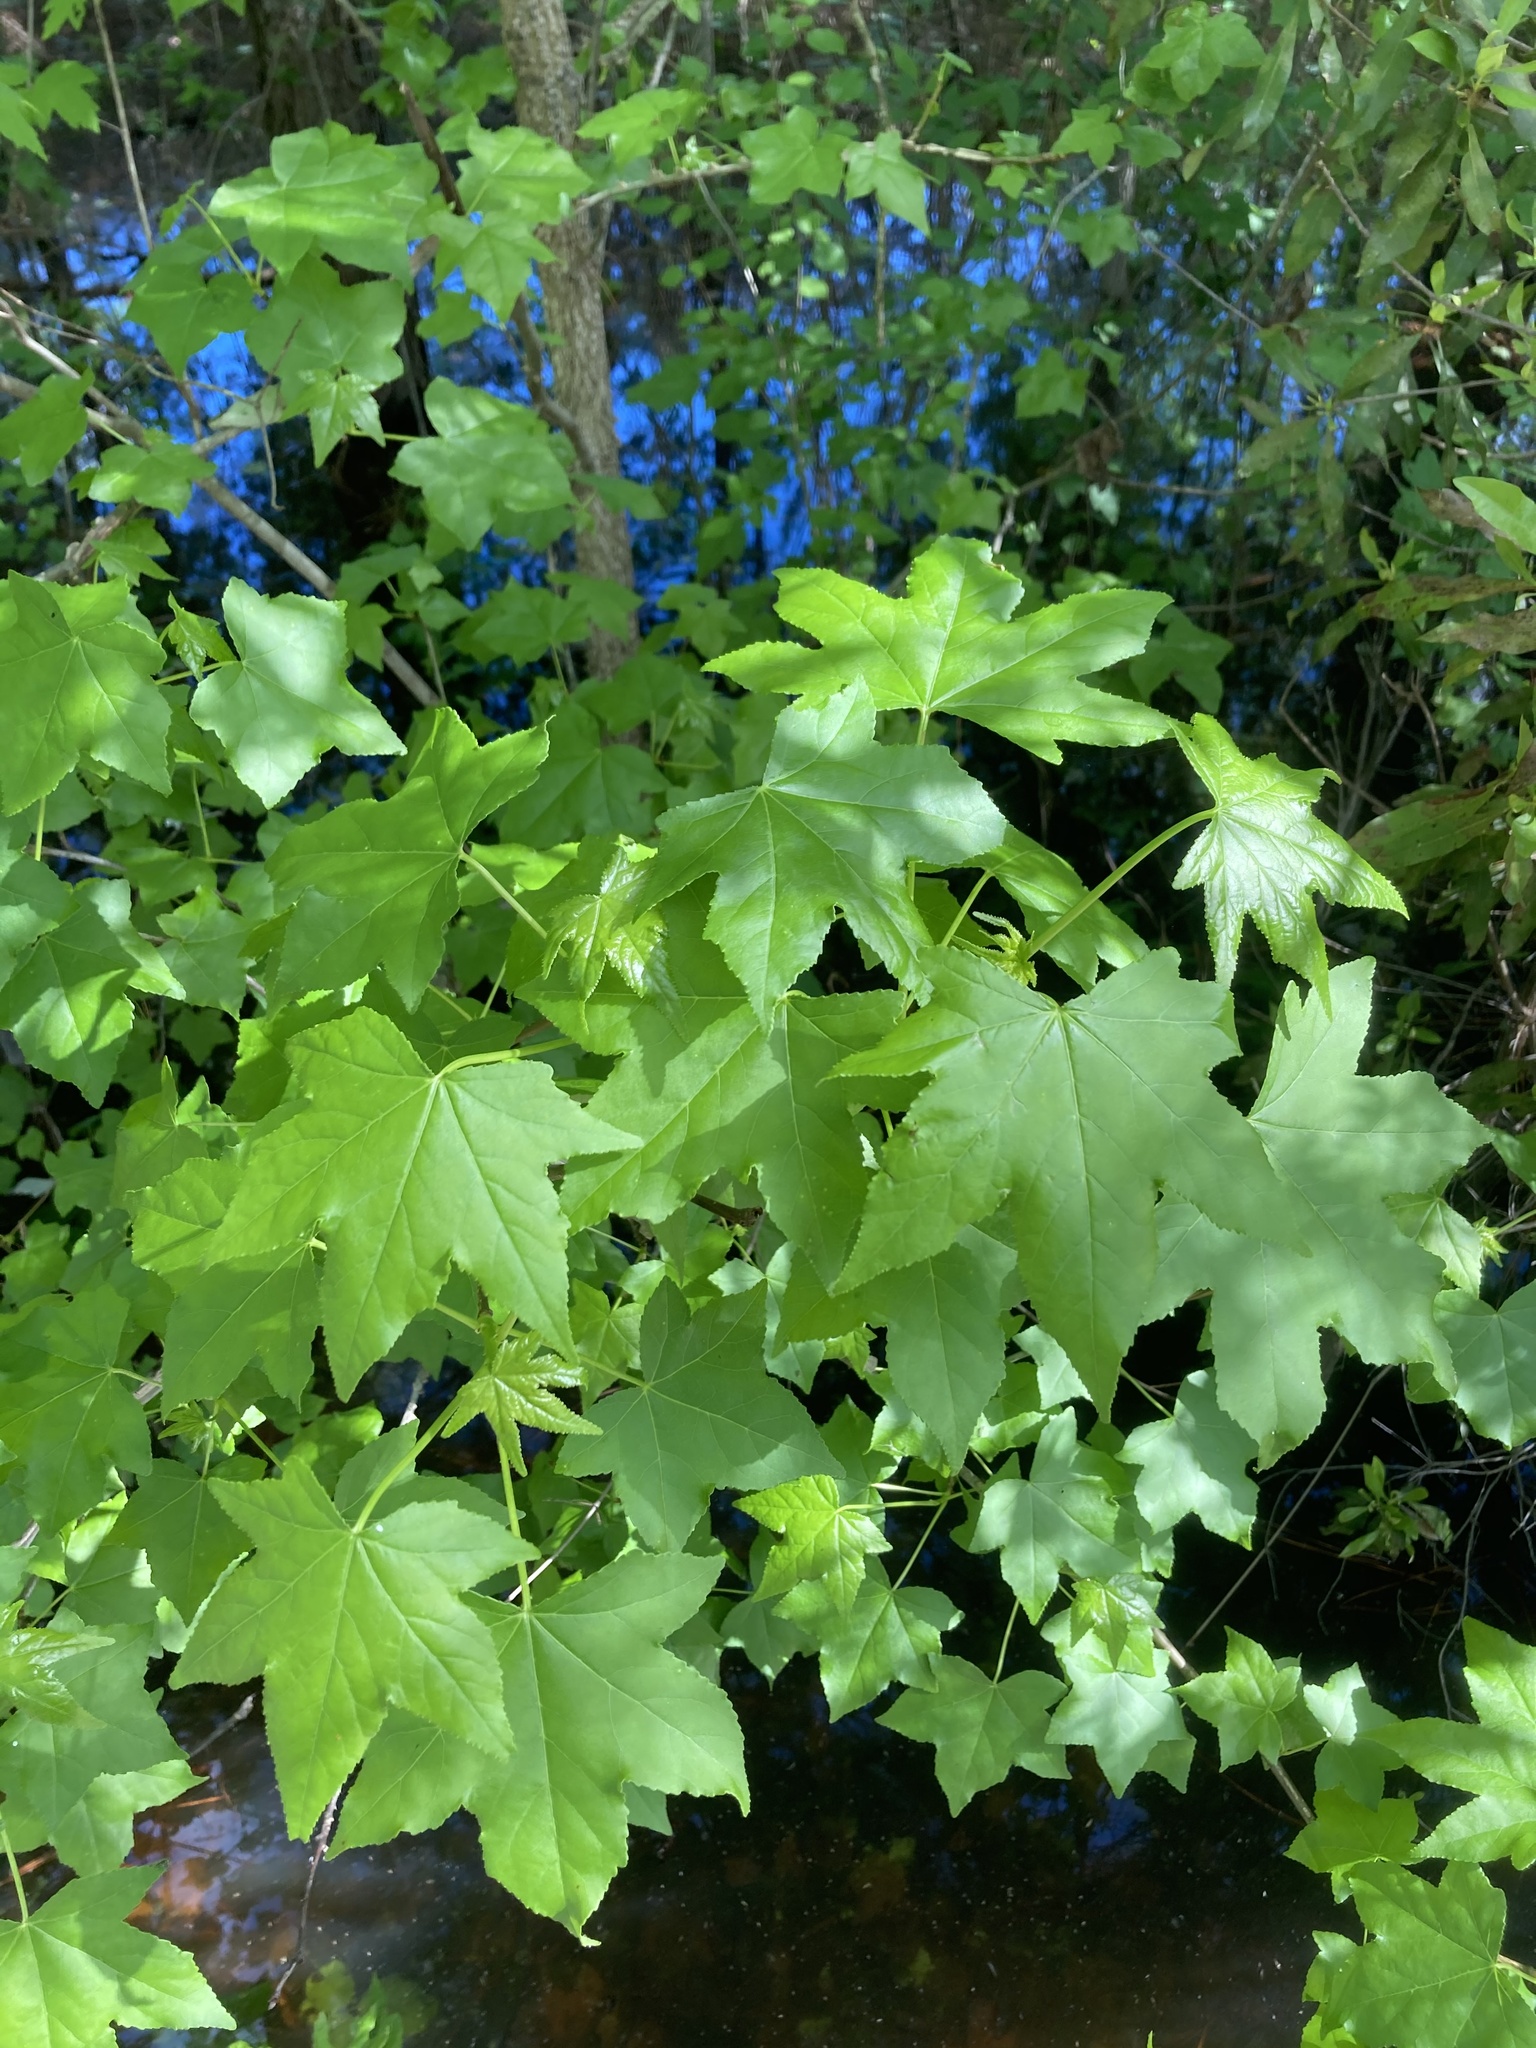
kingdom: Plantae
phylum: Tracheophyta
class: Magnoliopsida
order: Saxifragales
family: Altingiaceae
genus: Liquidambar
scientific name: Liquidambar styraciflua
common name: Sweet gum
